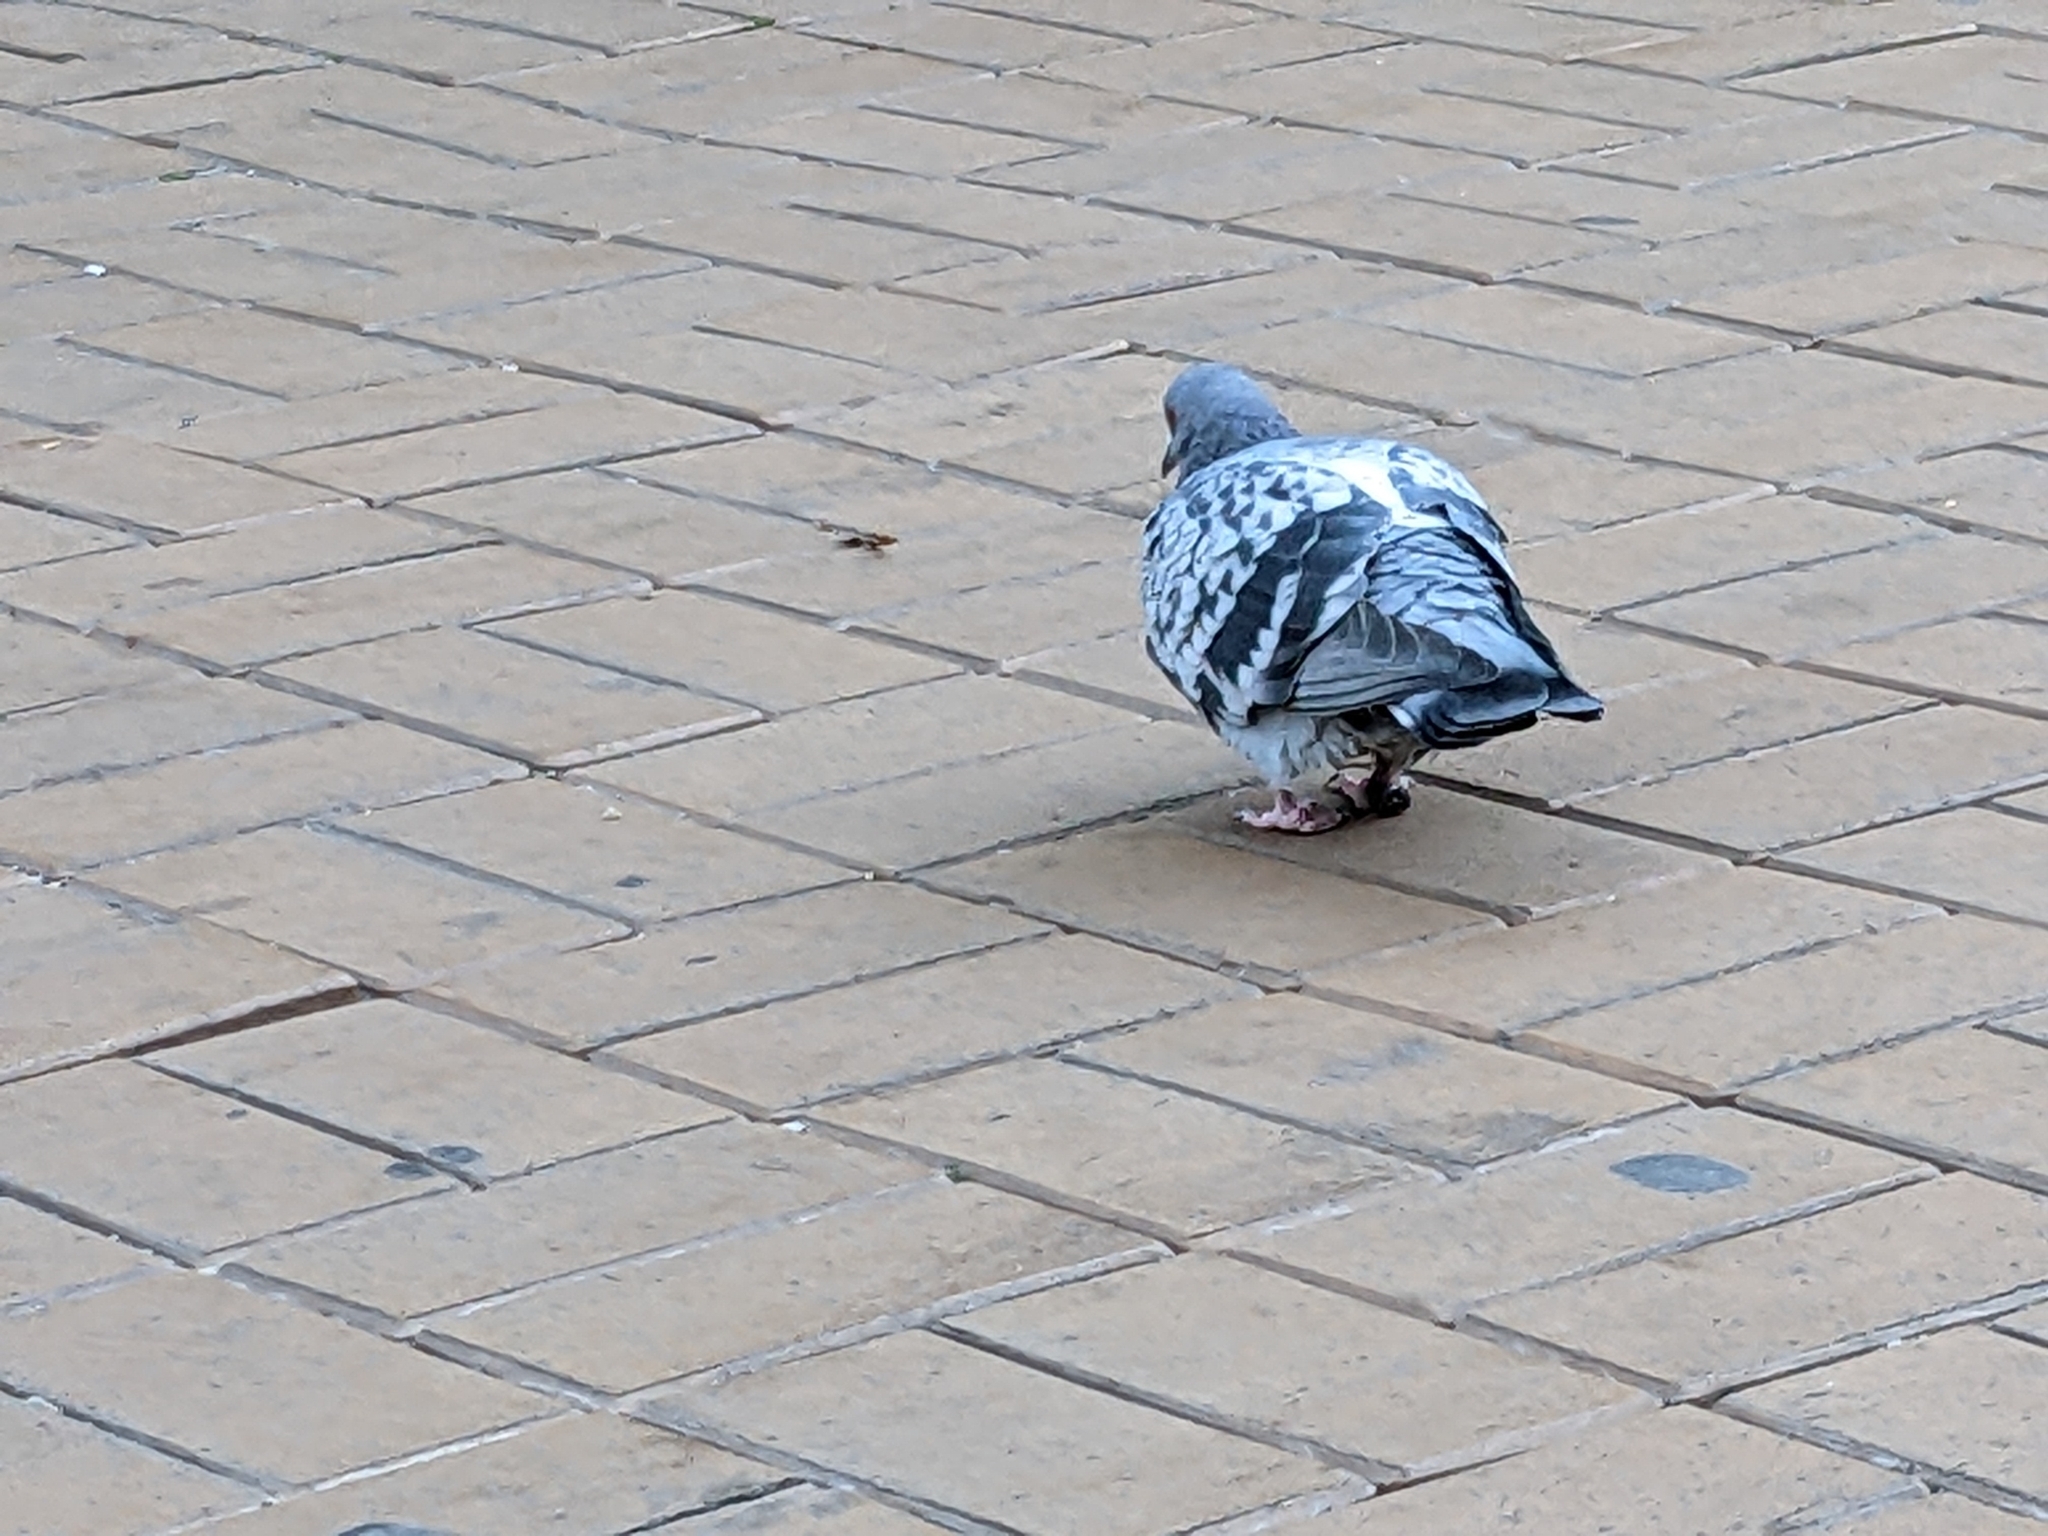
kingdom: Animalia
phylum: Chordata
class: Aves
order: Columbiformes
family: Columbidae
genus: Columba
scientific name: Columba livia
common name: Rock pigeon
